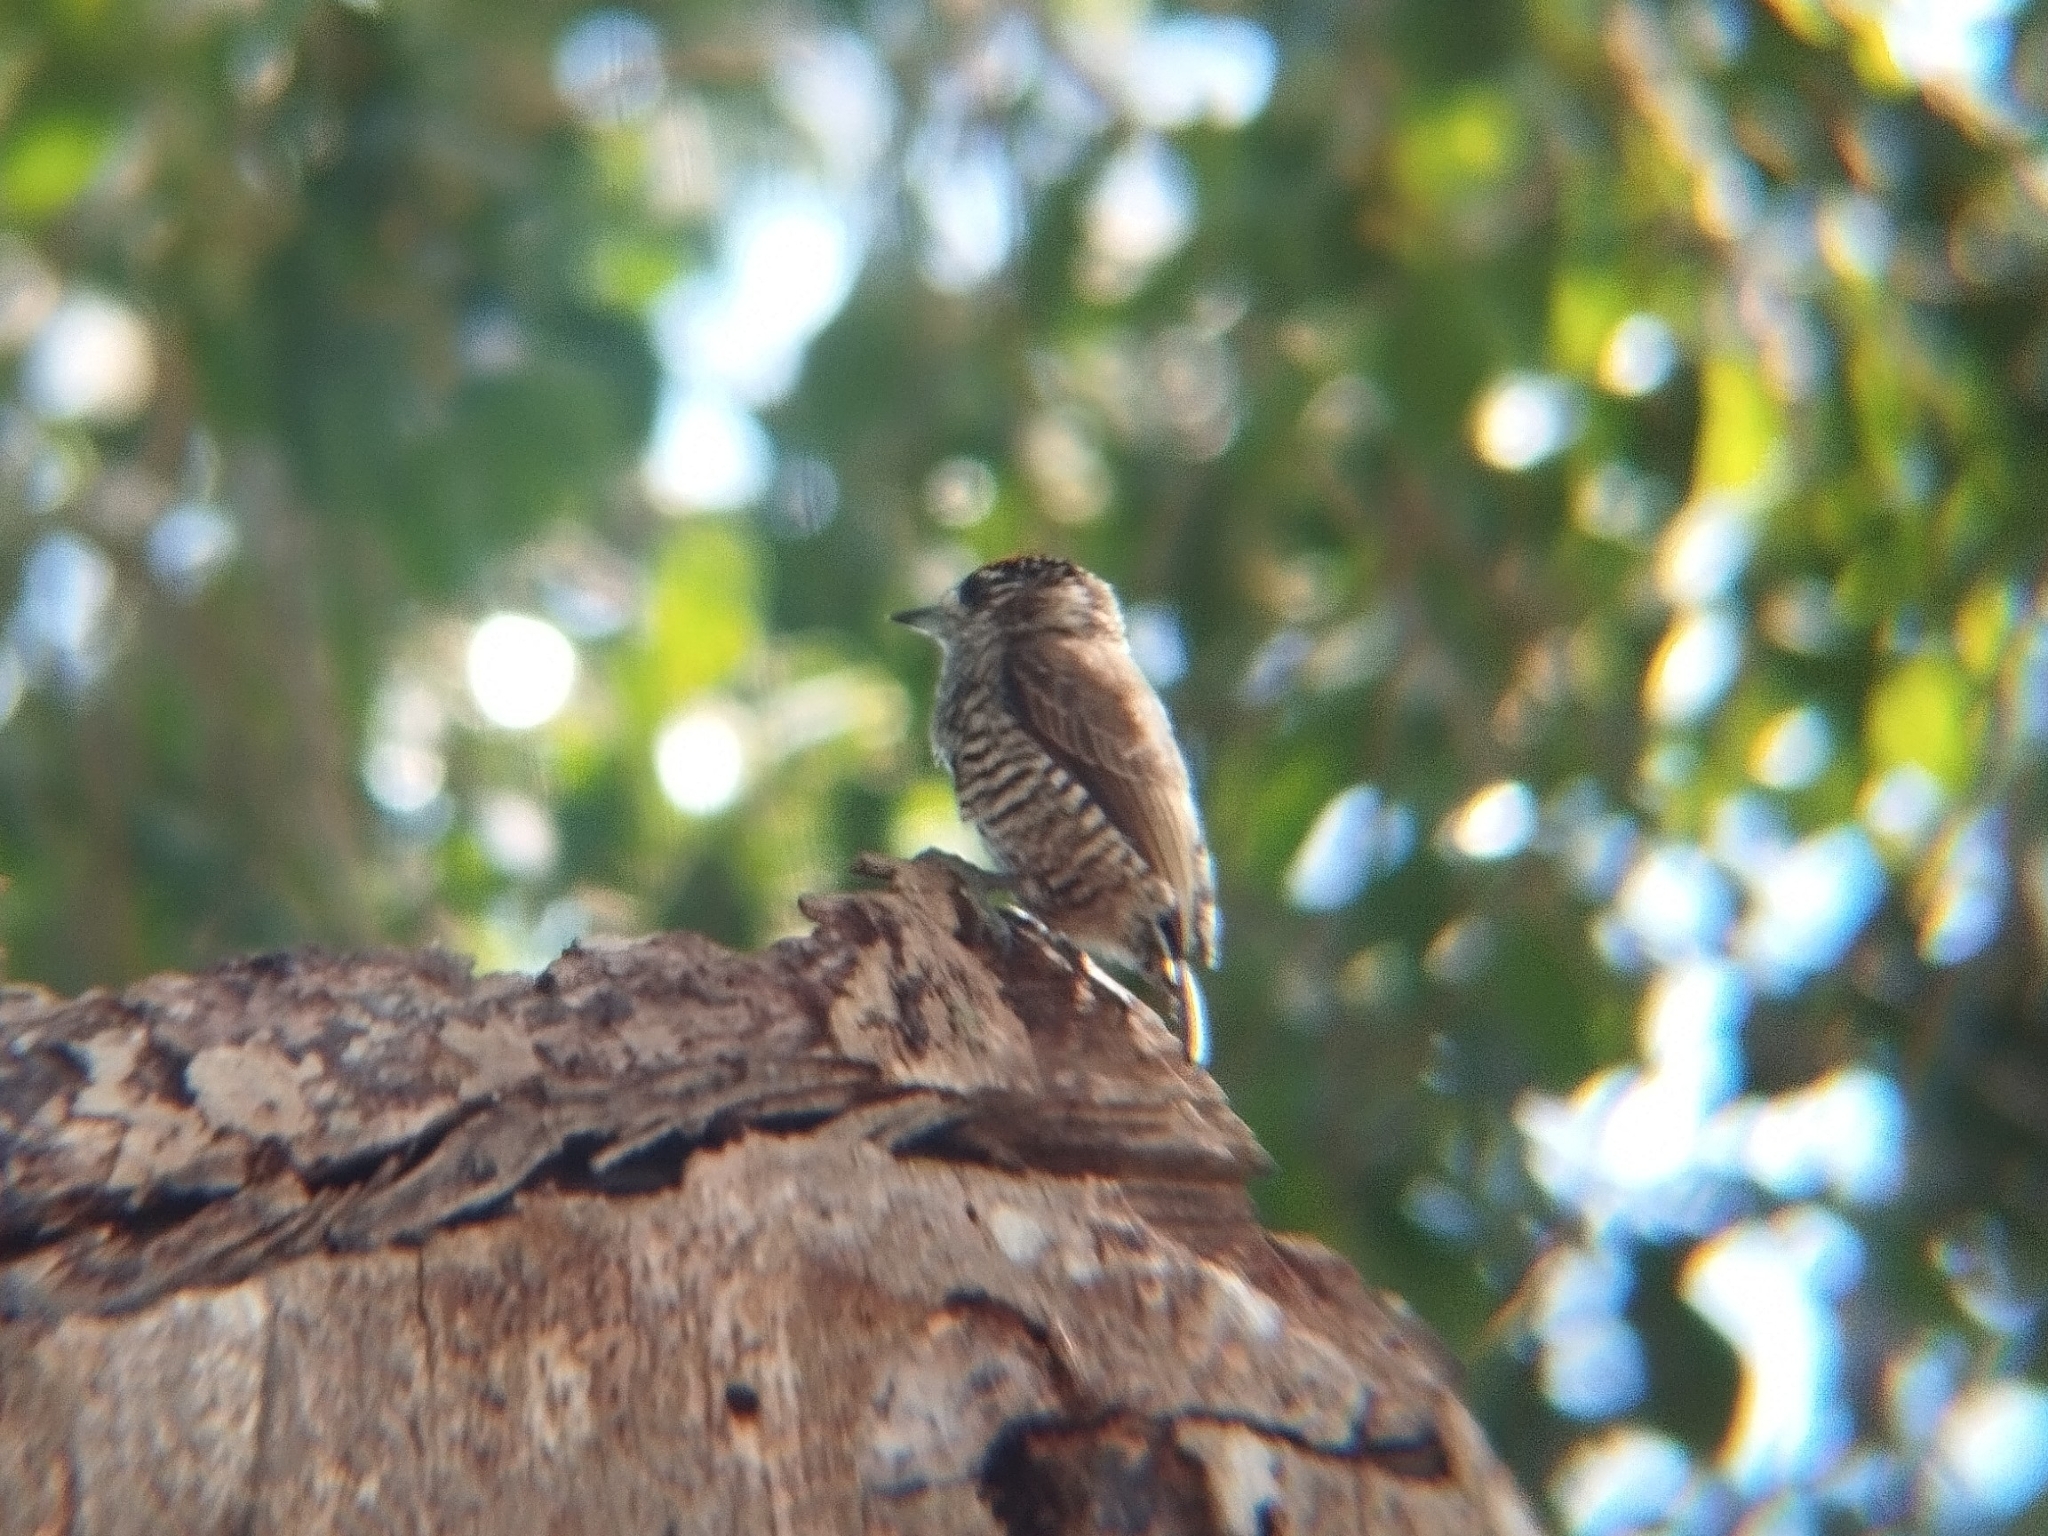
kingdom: Animalia
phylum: Chordata
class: Aves
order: Piciformes
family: Picidae
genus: Picumnus
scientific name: Picumnus cirratus
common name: White-barred piculet
